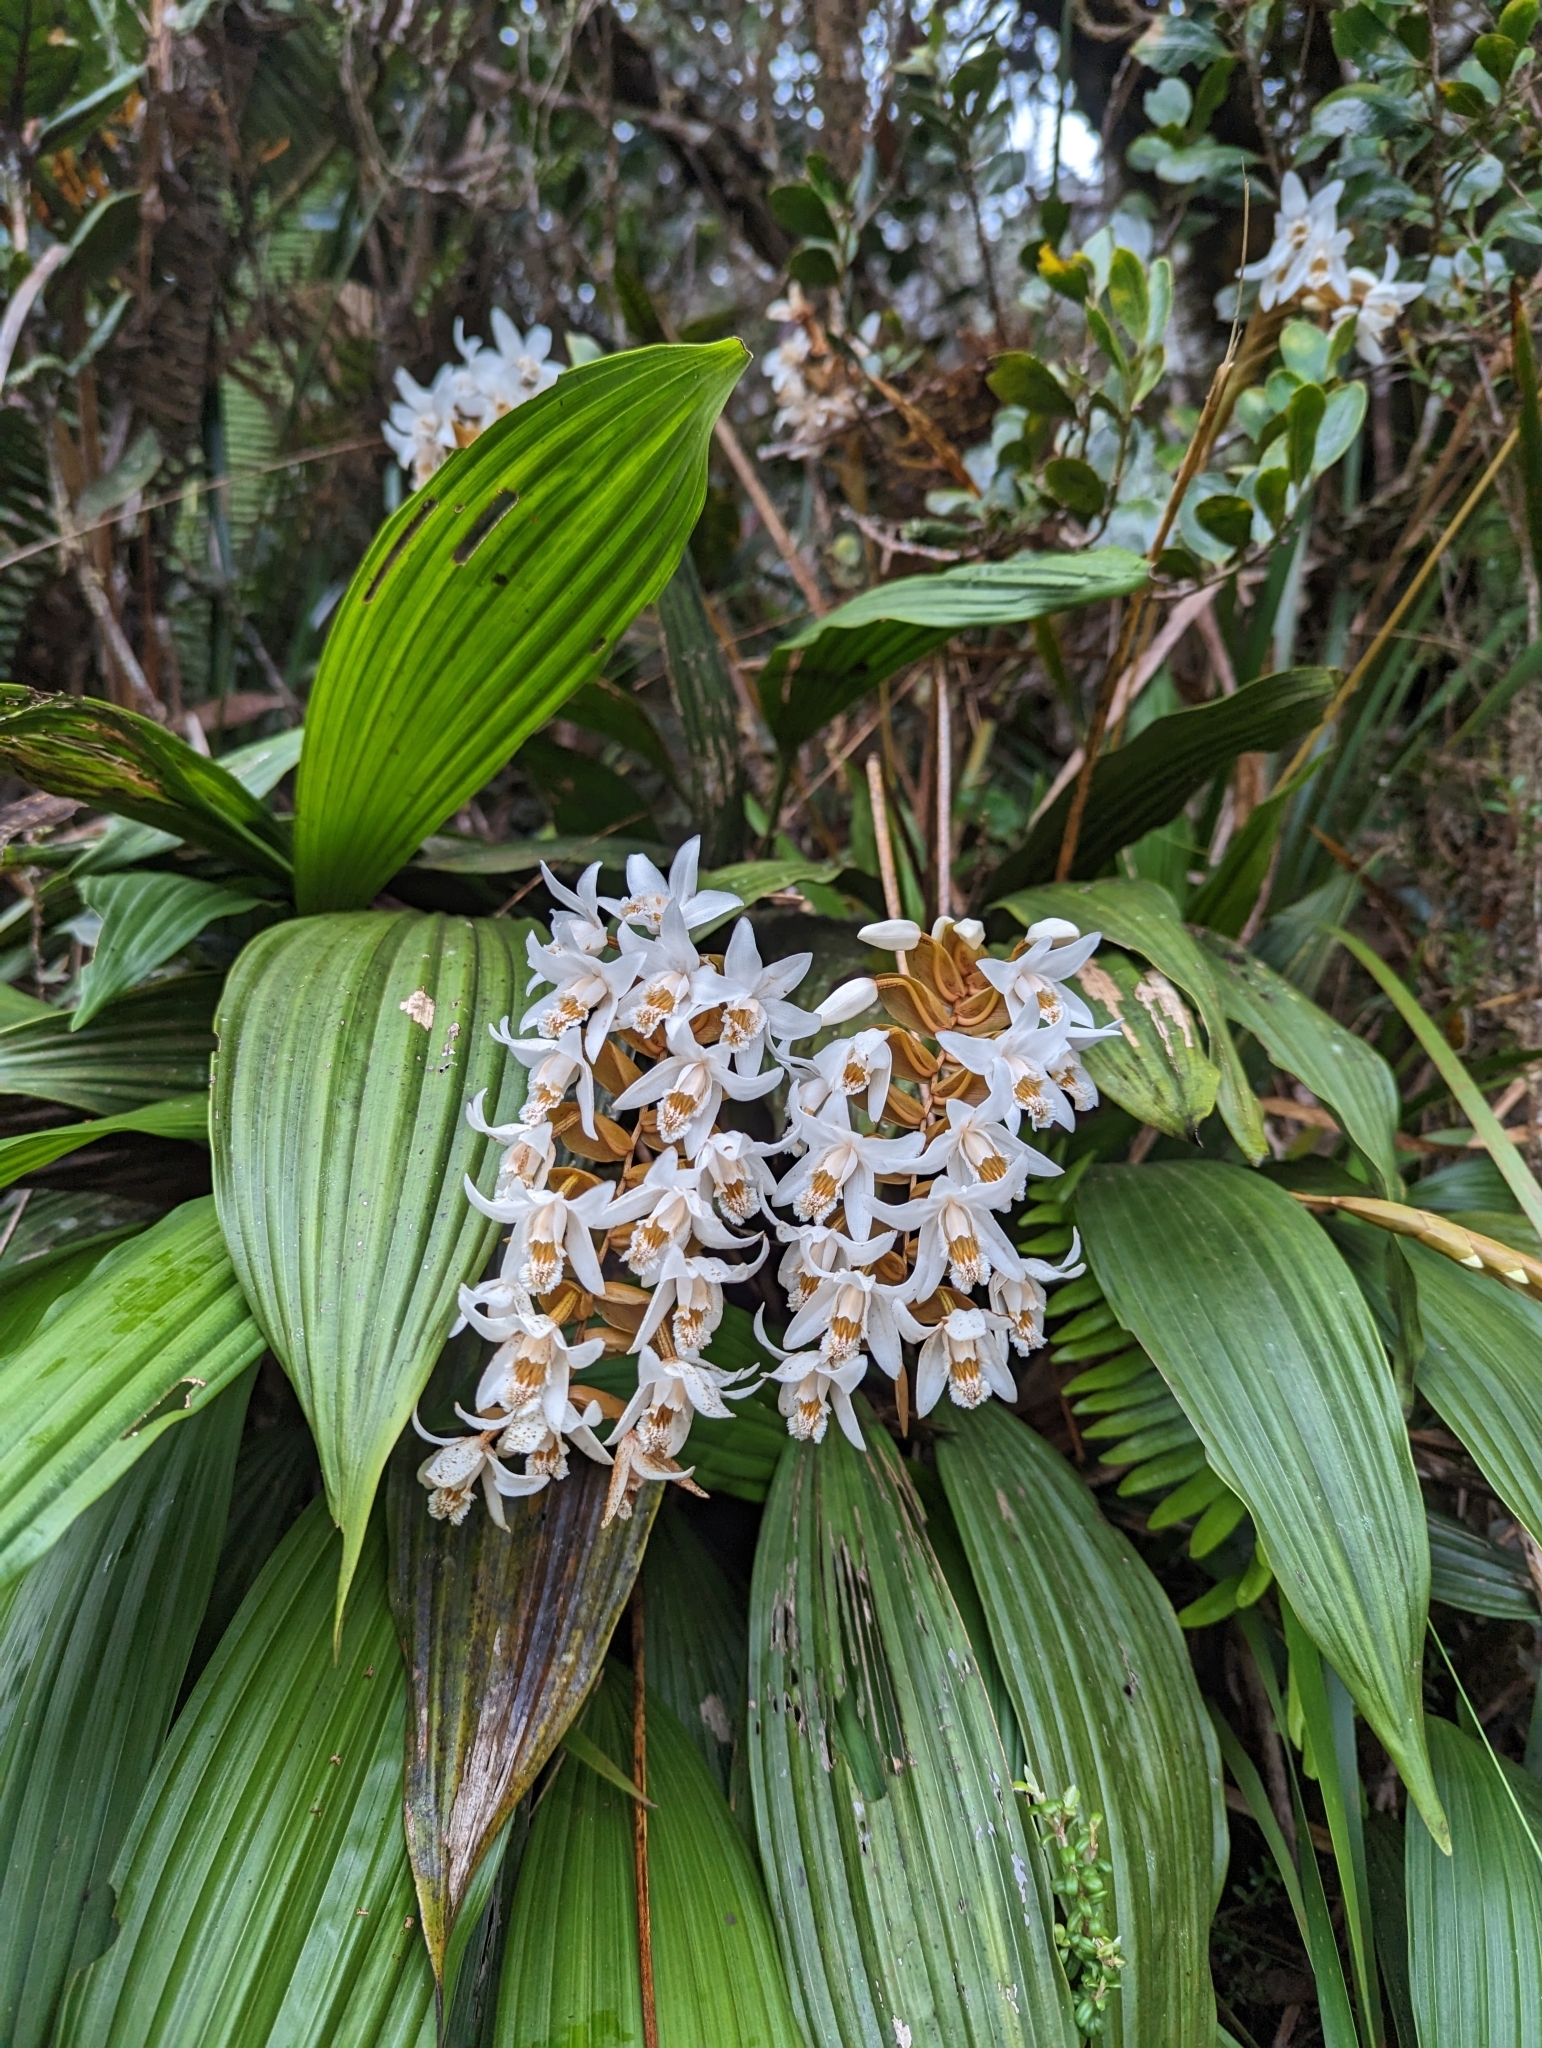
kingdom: Plantae
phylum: Tracheophyta
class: Liliopsida
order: Asparagales
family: Orchidaceae
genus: Coelogyne
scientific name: Coelogyne papillosa
